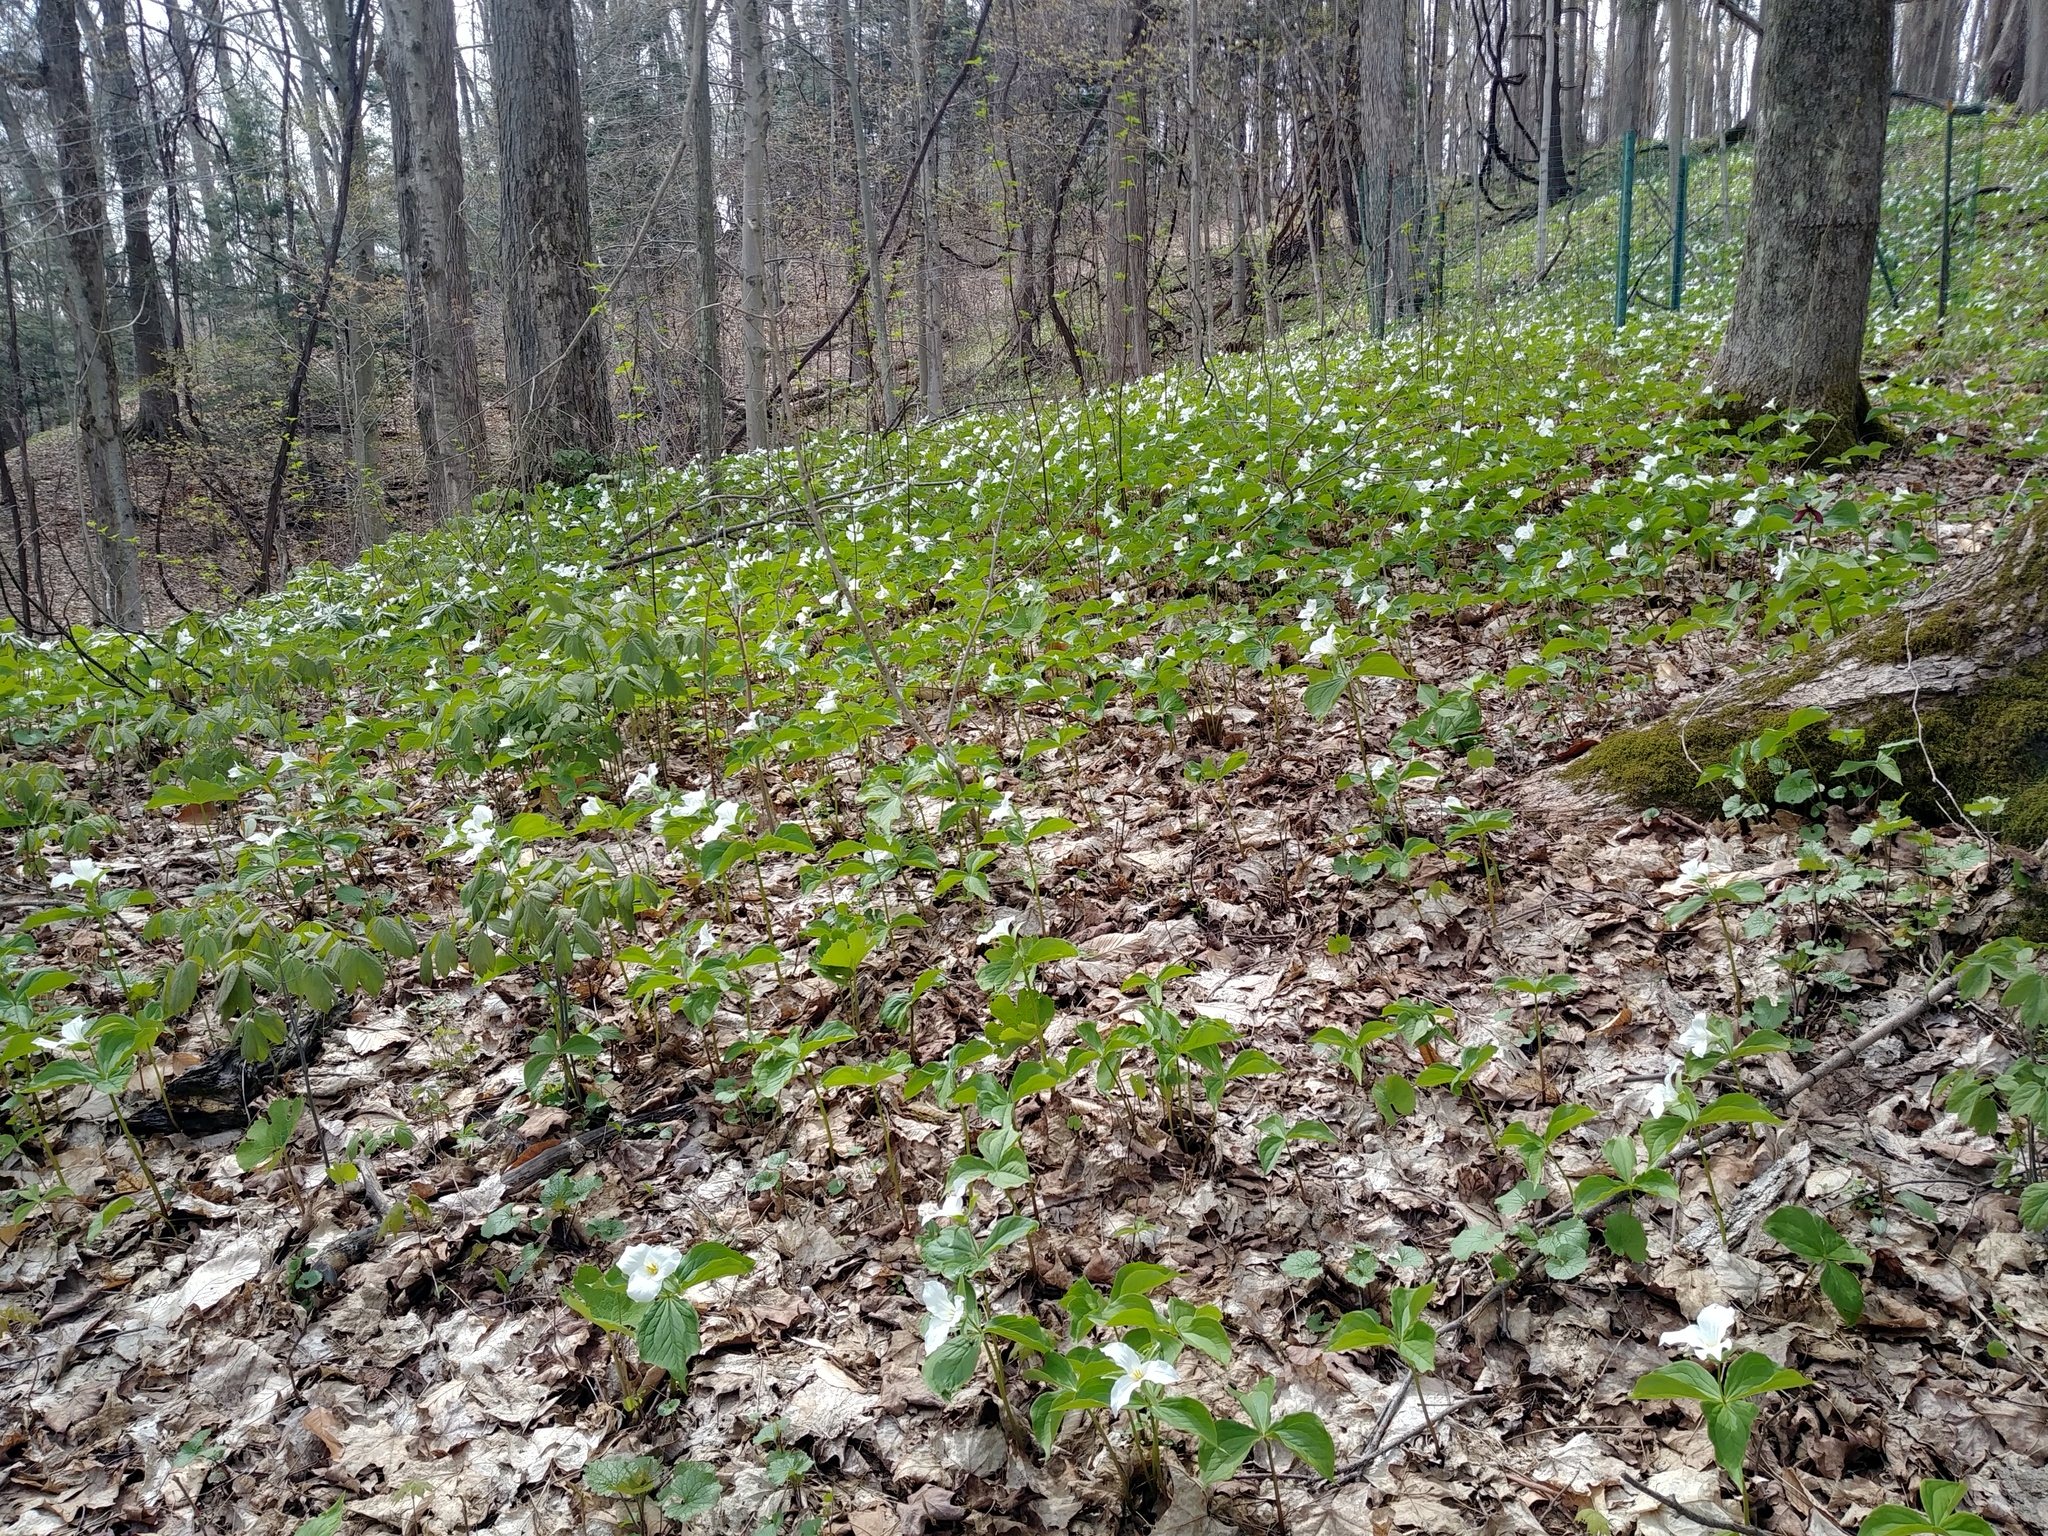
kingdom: Plantae
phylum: Tracheophyta
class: Liliopsida
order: Liliales
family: Melanthiaceae
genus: Trillium
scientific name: Trillium grandiflorum
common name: Great white trillium
